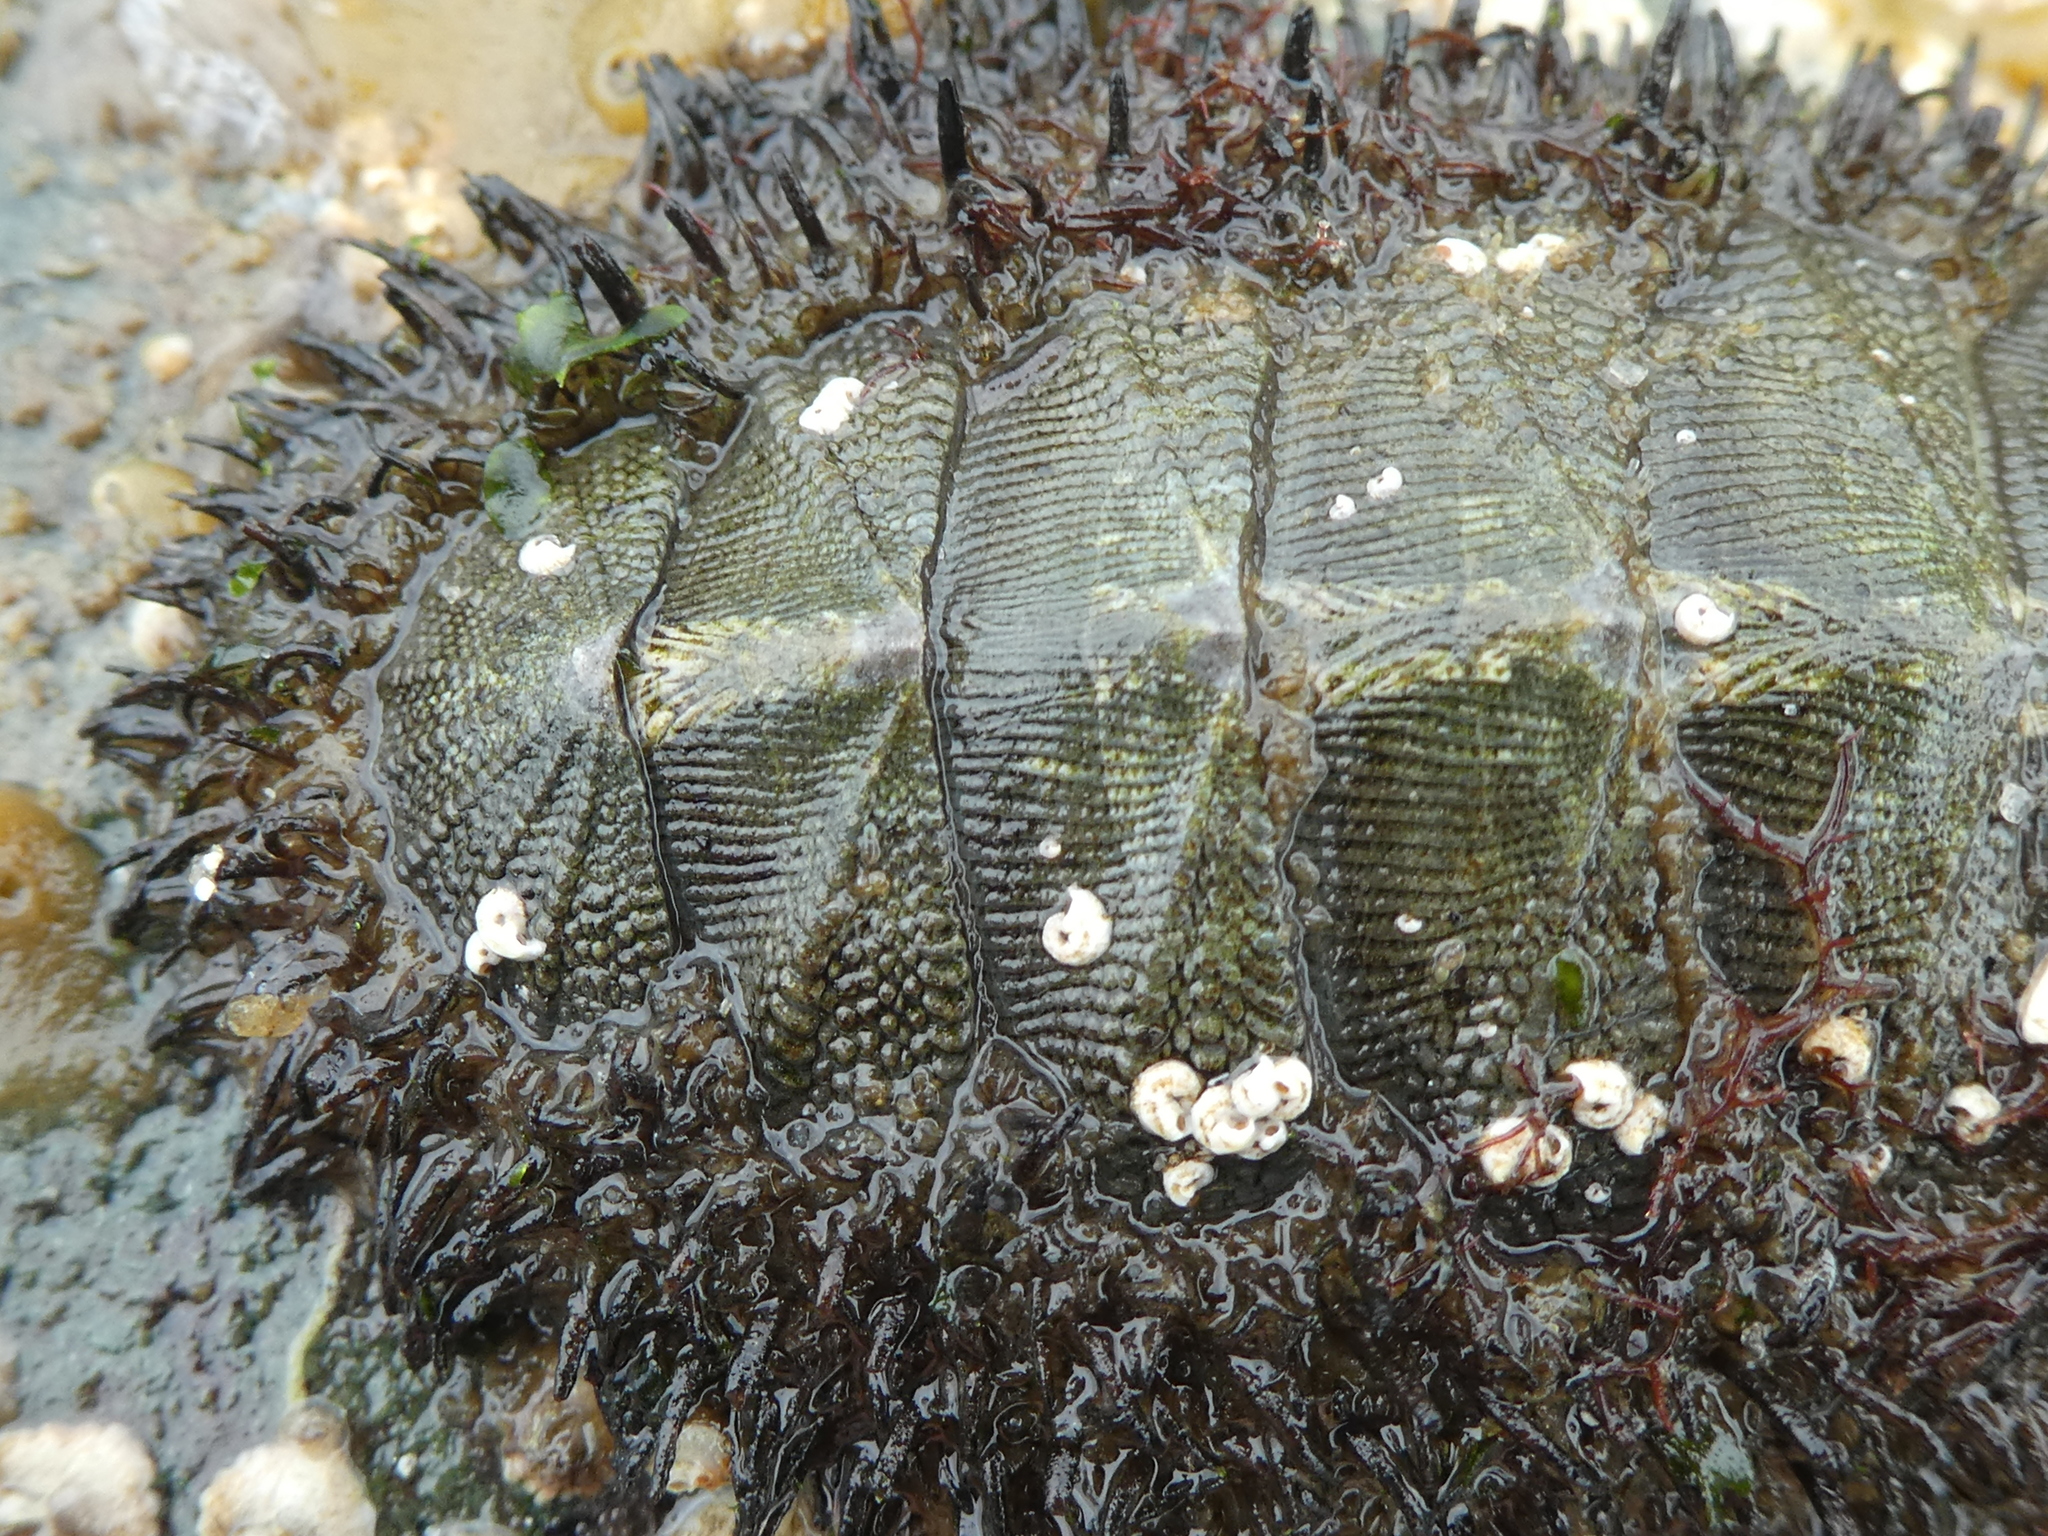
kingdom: Animalia
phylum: Mollusca
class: Polyplacophora
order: Chitonida
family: Mopaliidae
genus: Mopalia
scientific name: Mopalia muscosa
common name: Mossy chiton
